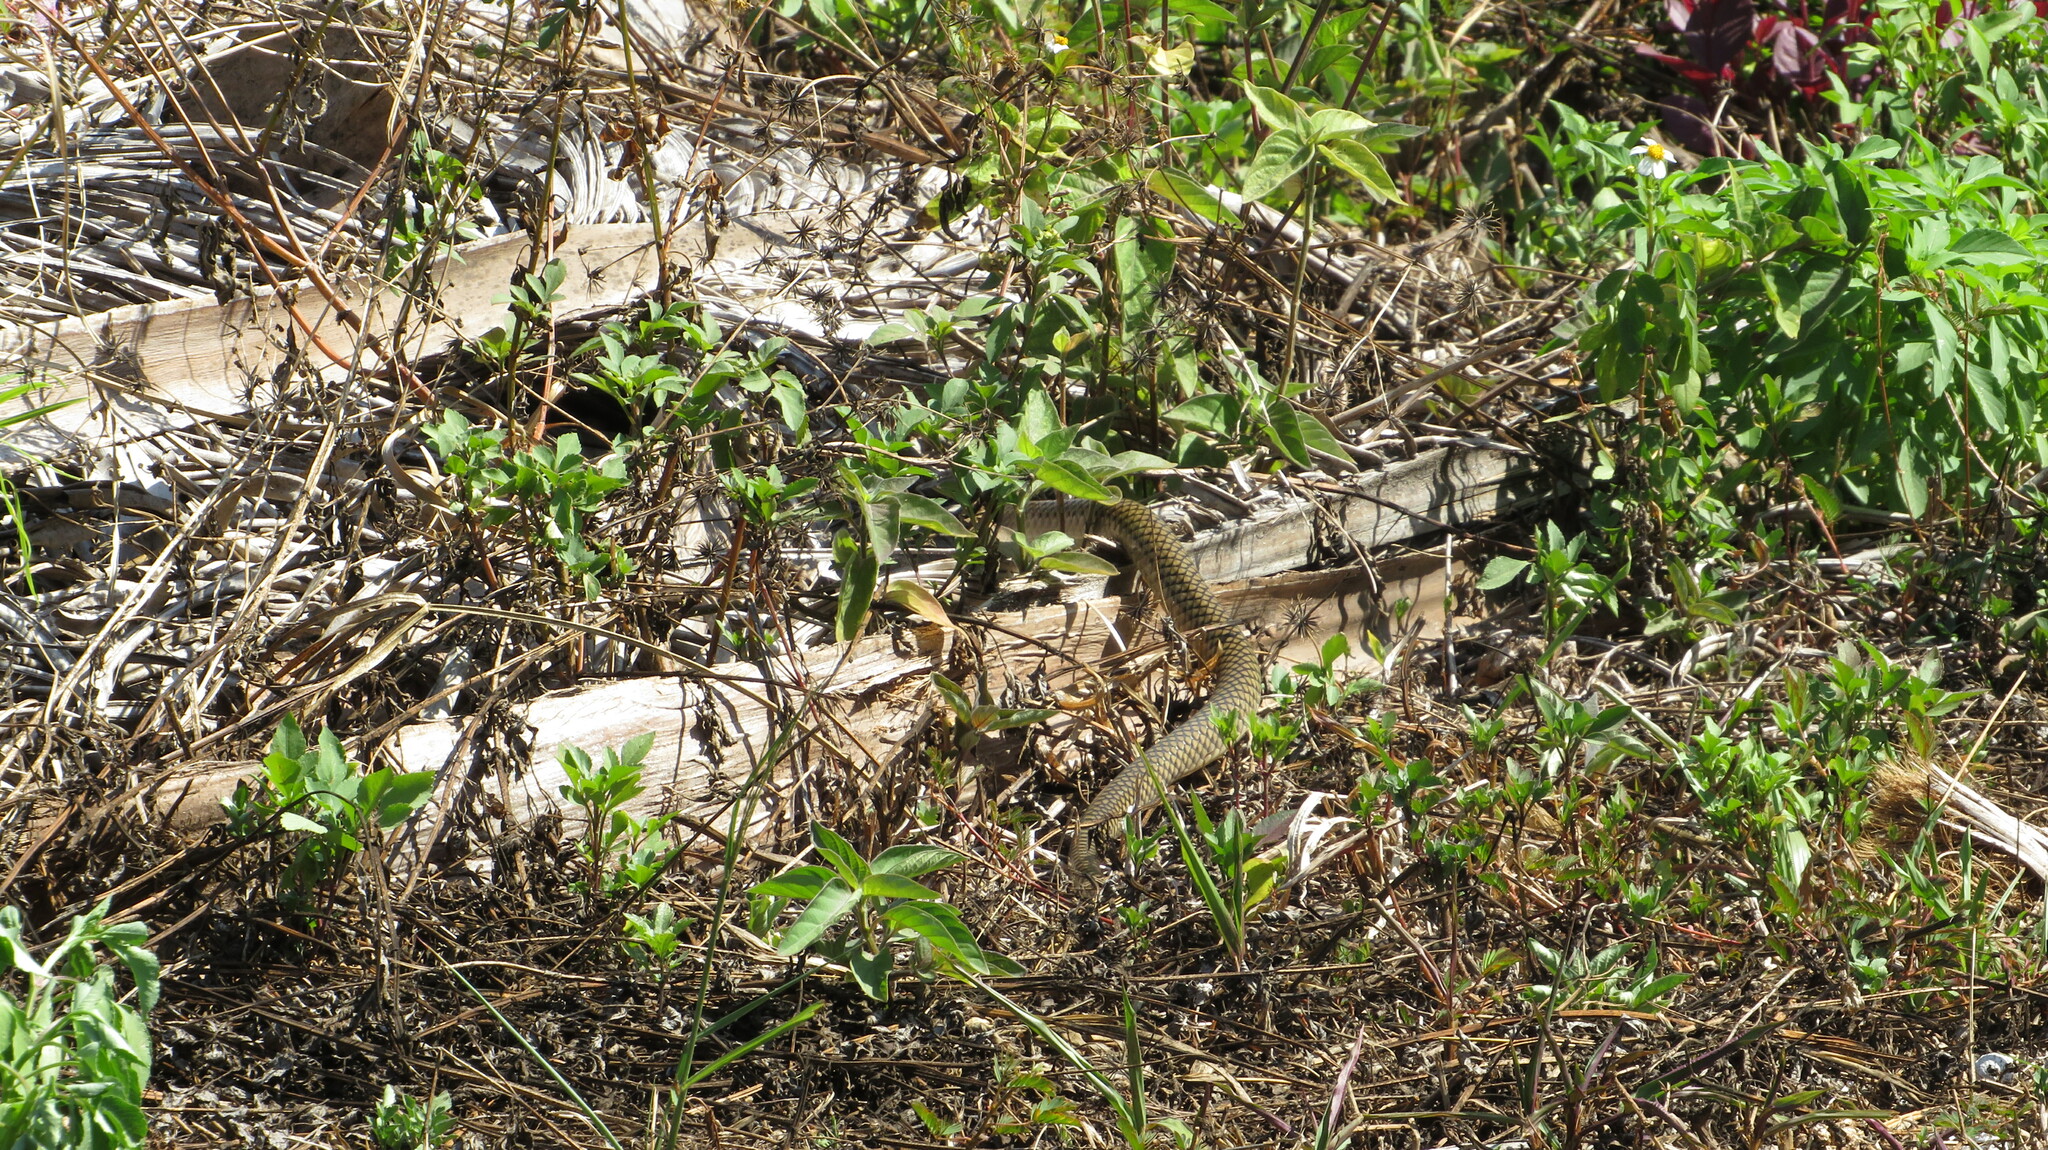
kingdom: Animalia
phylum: Chordata
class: Squamata
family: Colubridae
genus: Ptyas
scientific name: Ptyas korros
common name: Indo-chinese rat snake
